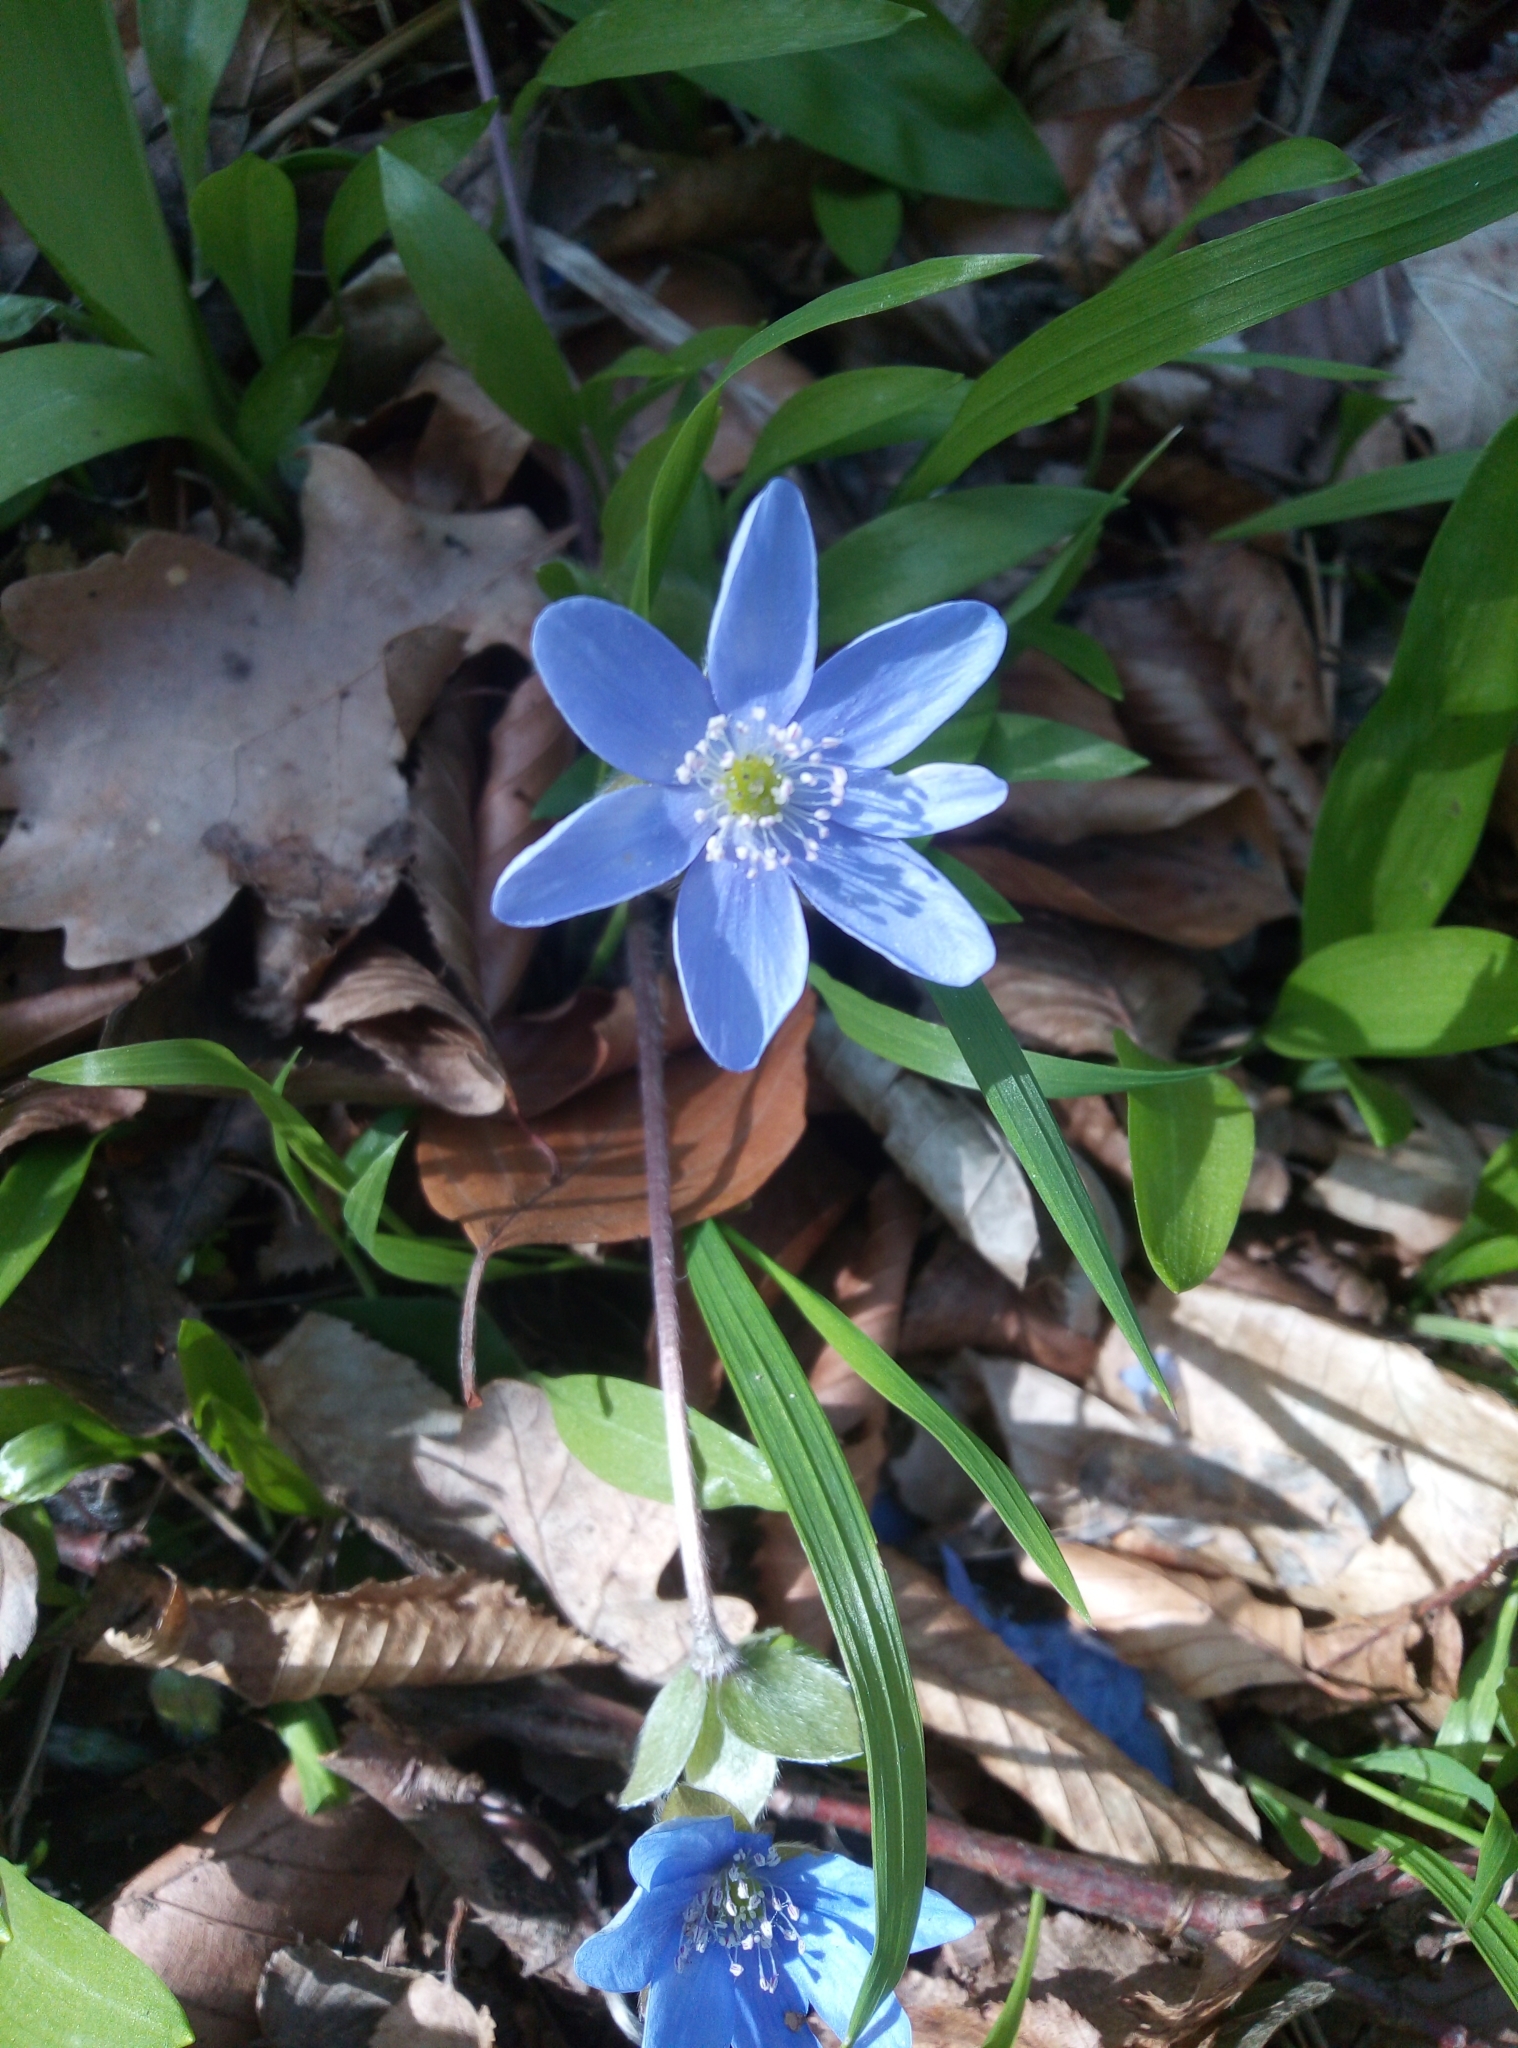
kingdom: Plantae
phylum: Tracheophyta
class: Magnoliopsida
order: Ranunculales
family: Ranunculaceae
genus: Hepatica
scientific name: Hepatica nobilis
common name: Liverleaf
